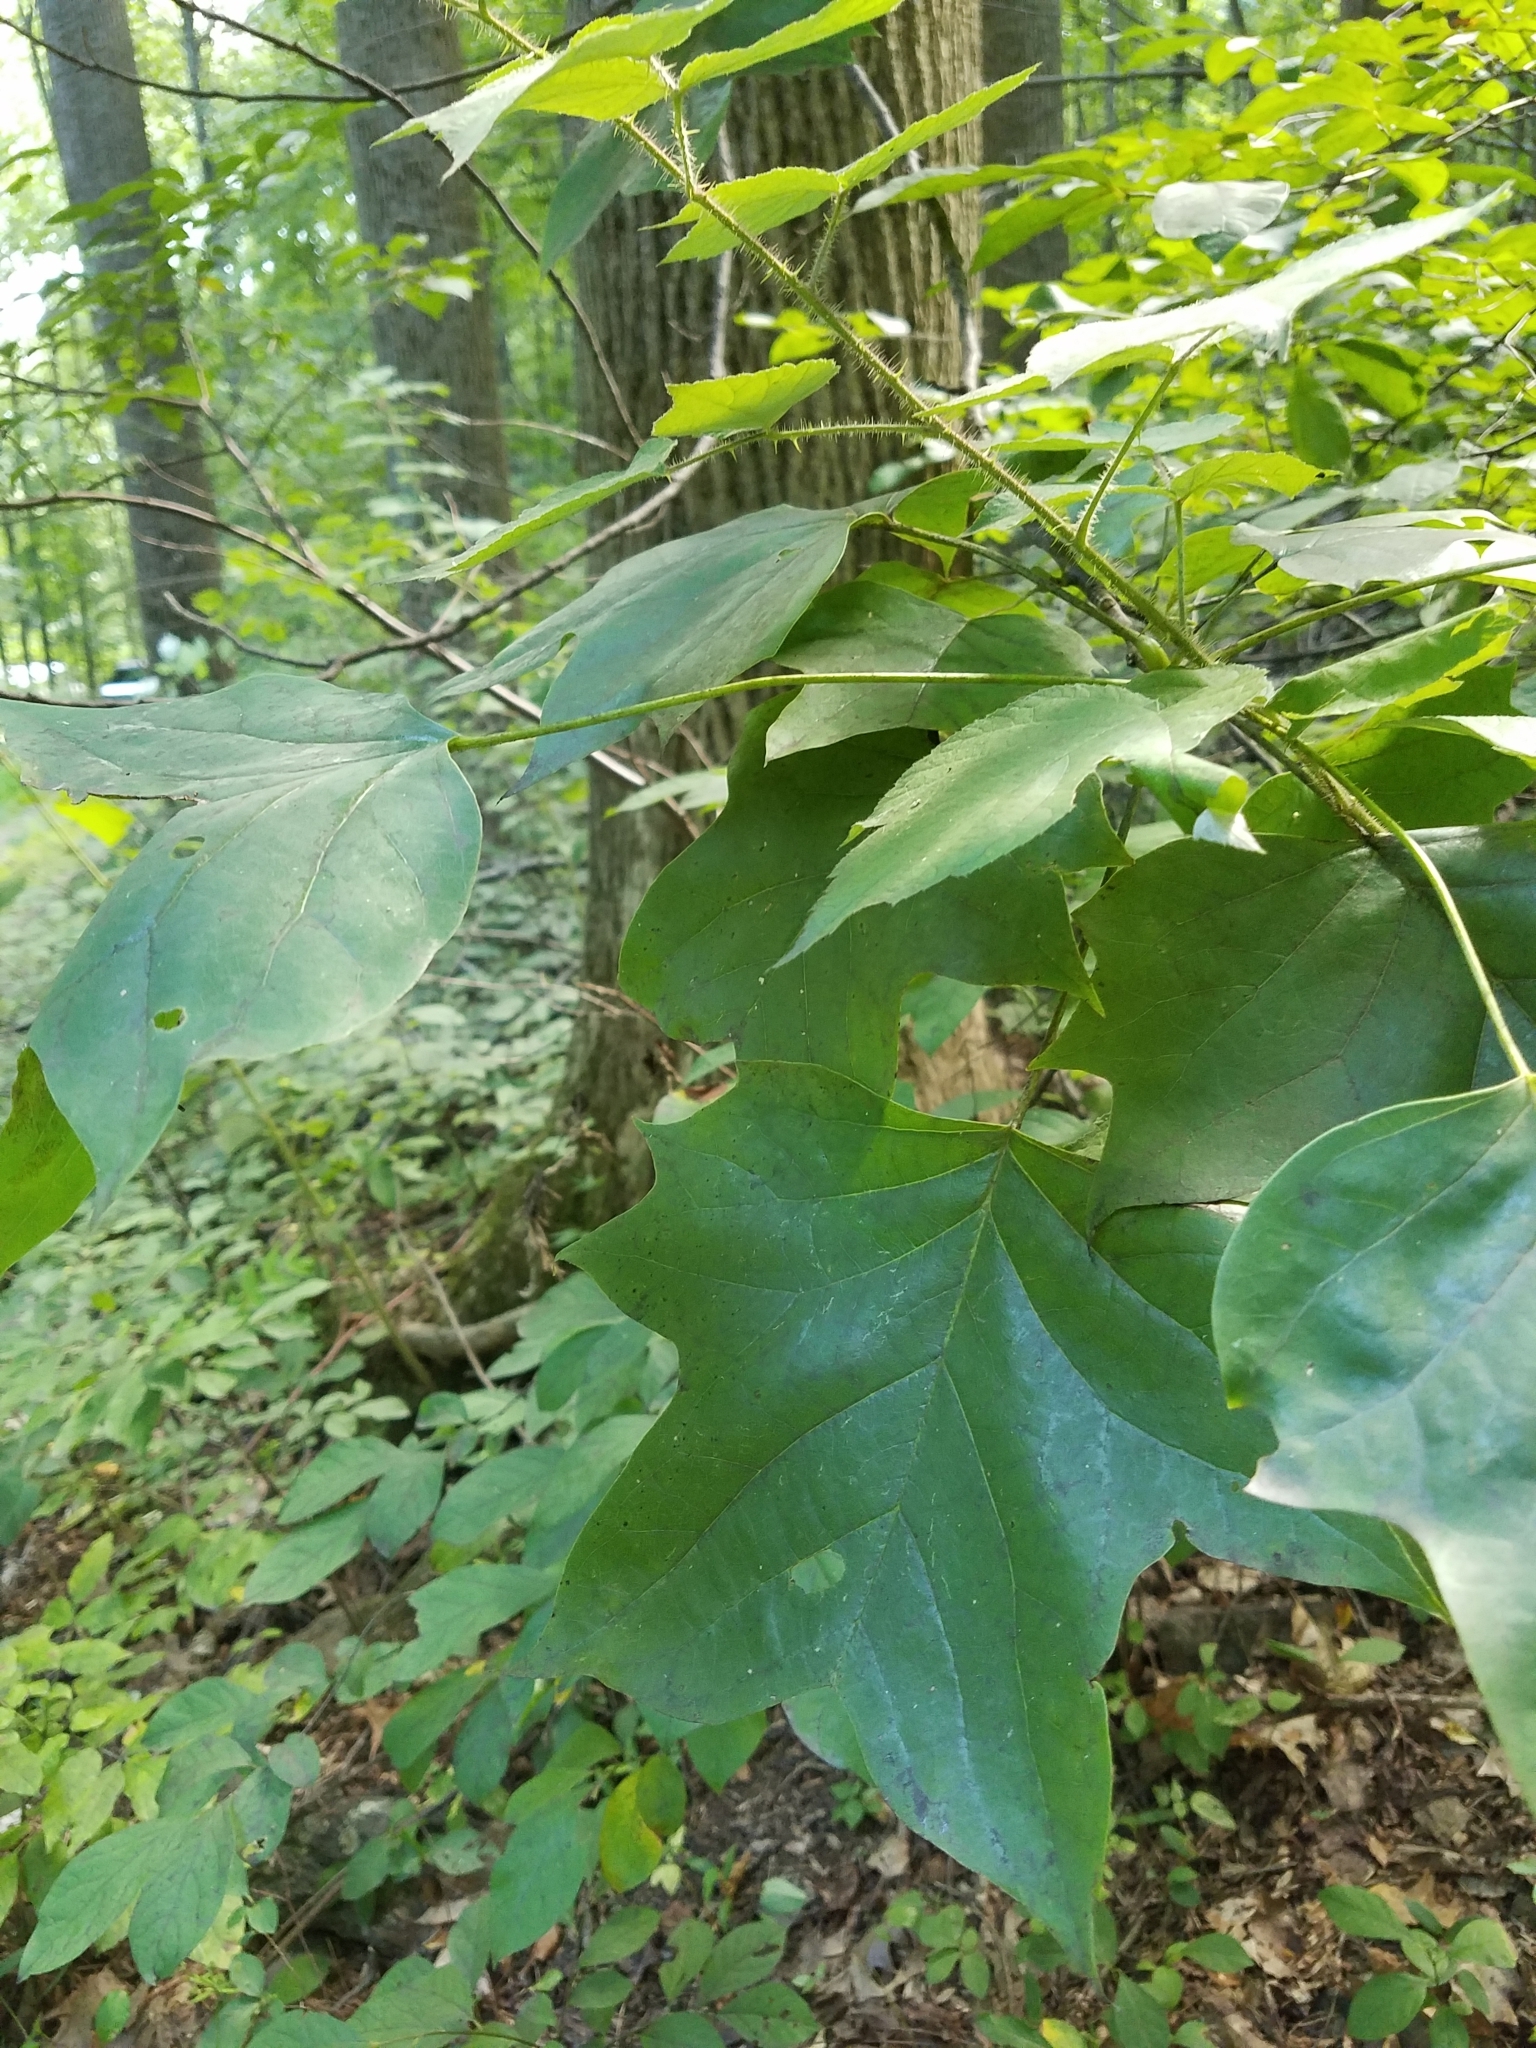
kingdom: Plantae
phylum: Tracheophyta
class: Magnoliopsida
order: Magnoliales
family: Magnoliaceae
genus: Liriodendron
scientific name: Liriodendron tulipifera
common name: Tulip tree
